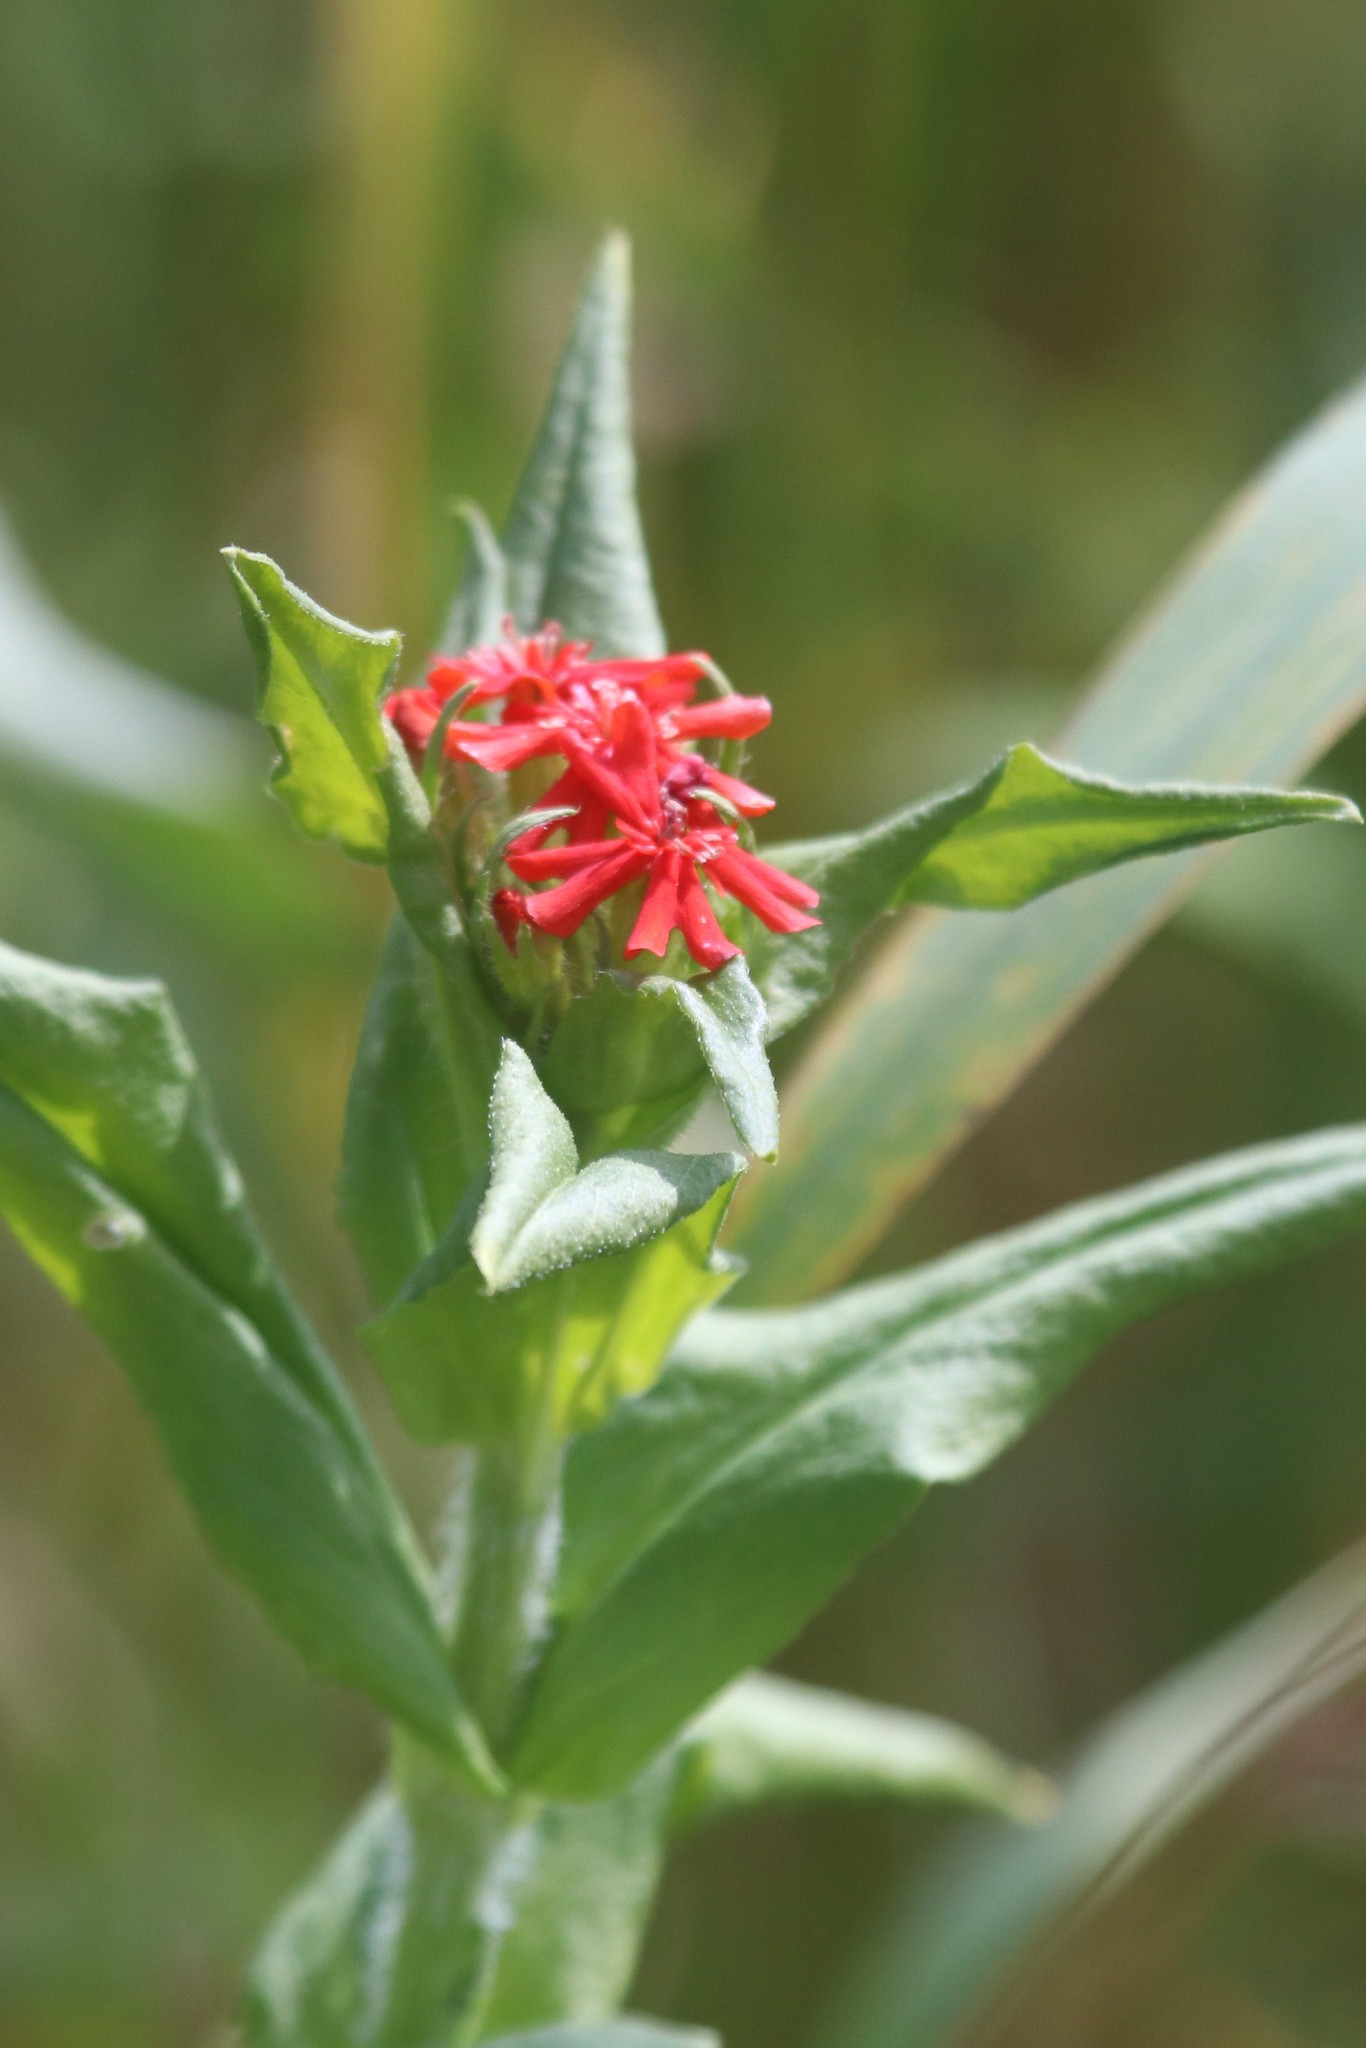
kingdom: Plantae
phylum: Tracheophyta
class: Magnoliopsida
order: Caryophyllales
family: Caryophyllaceae
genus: Silene
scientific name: Silene chalcedonica
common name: Maltese-cross
